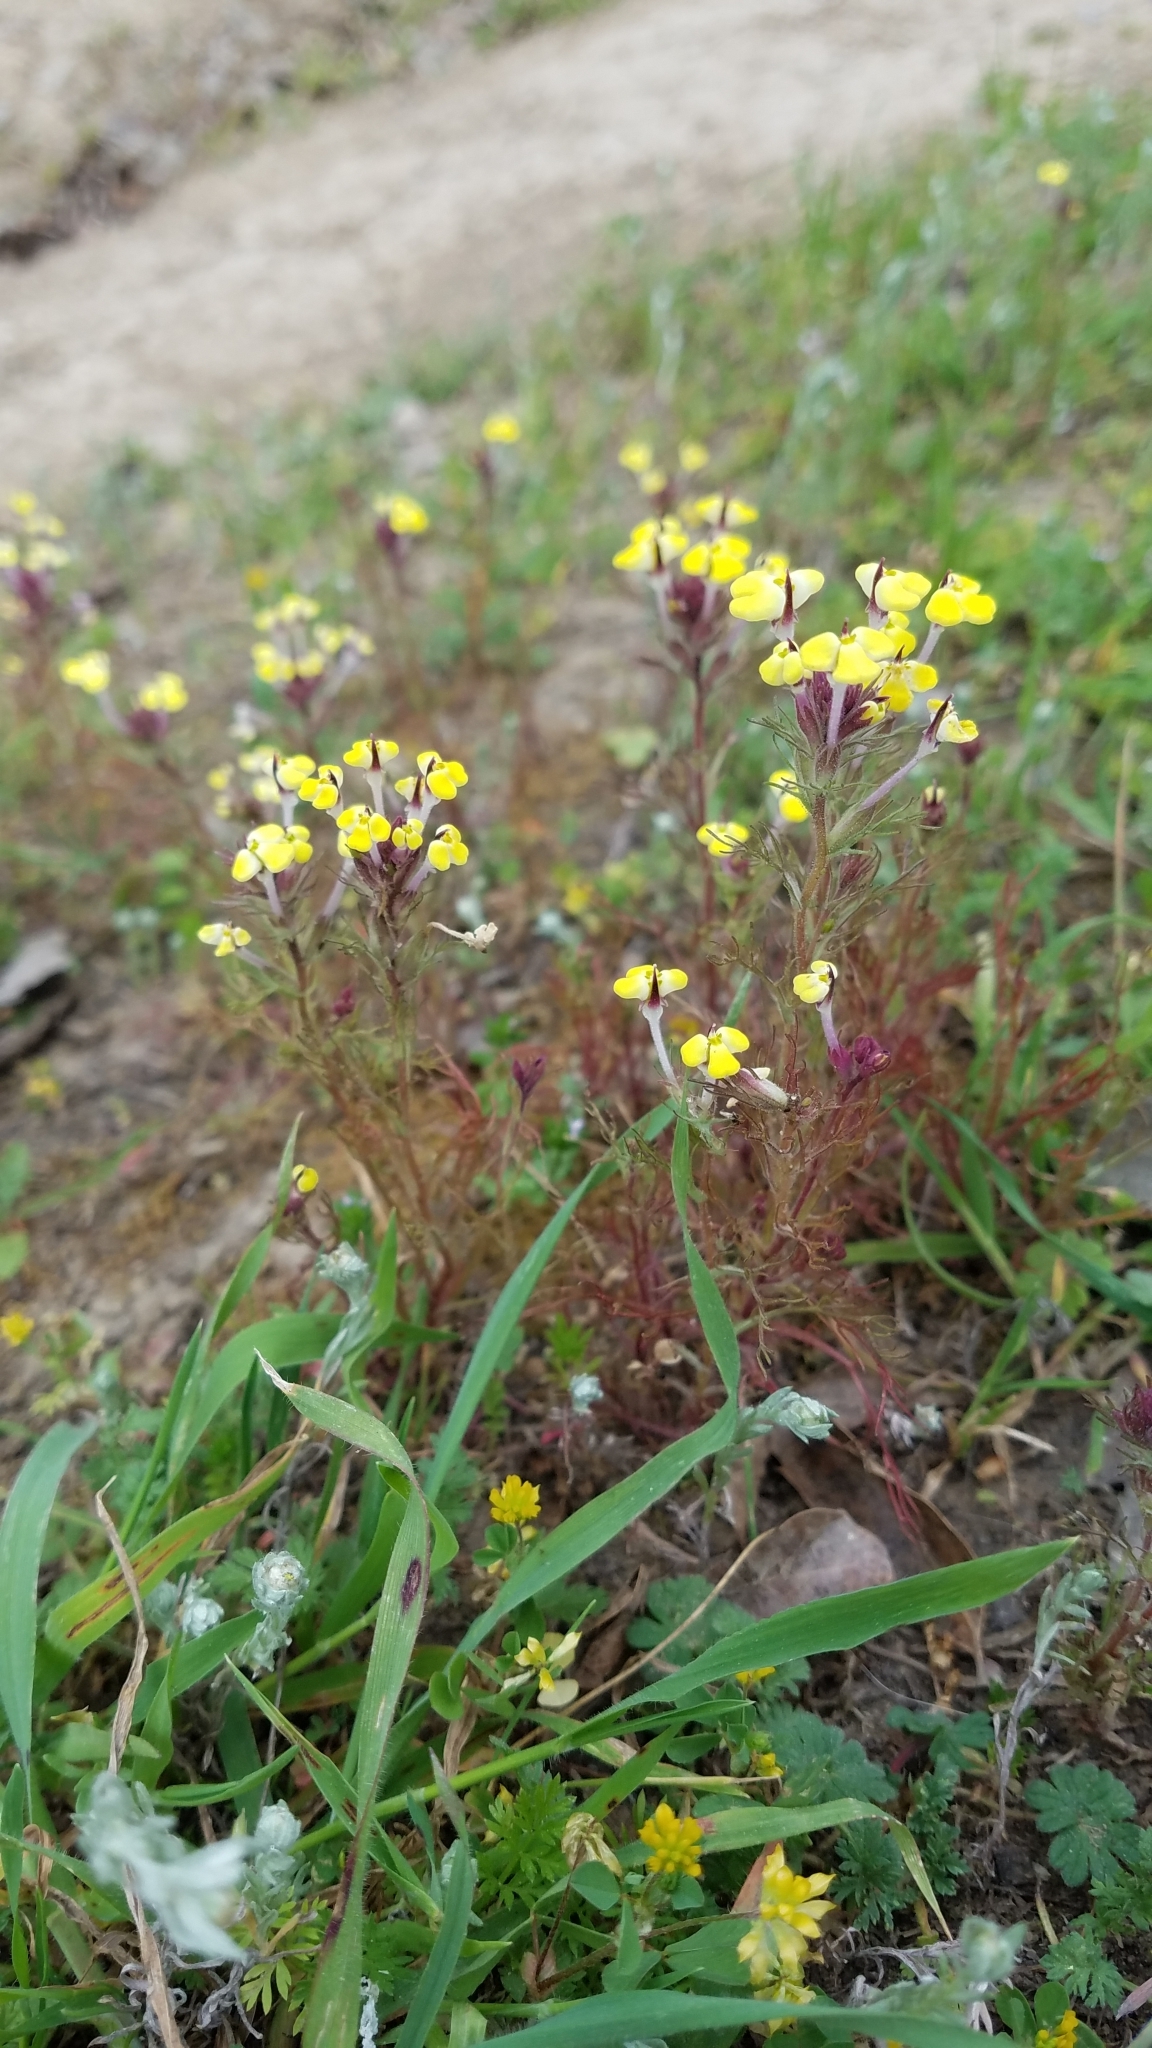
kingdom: Plantae
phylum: Tracheophyta
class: Magnoliopsida
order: Lamiales
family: Orobanchaceae
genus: Triphysaria
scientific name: Triphysaria eriantha
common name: Johnny-tuck
